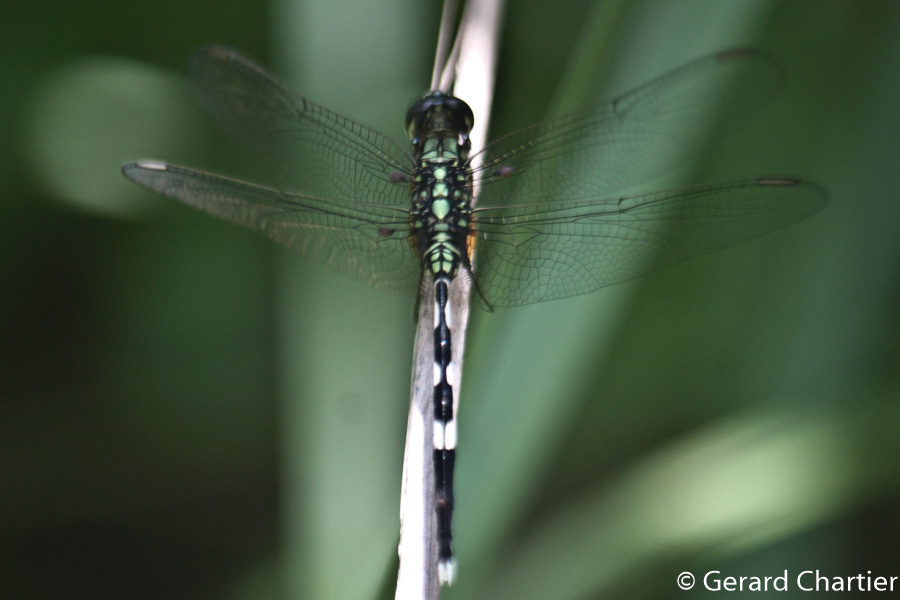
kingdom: Animalia
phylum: Arthropoda
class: Insecta
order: Odonata
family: Libellulidae
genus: Orthetrum
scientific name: Orthetrum sabina
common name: Slender skimmer
